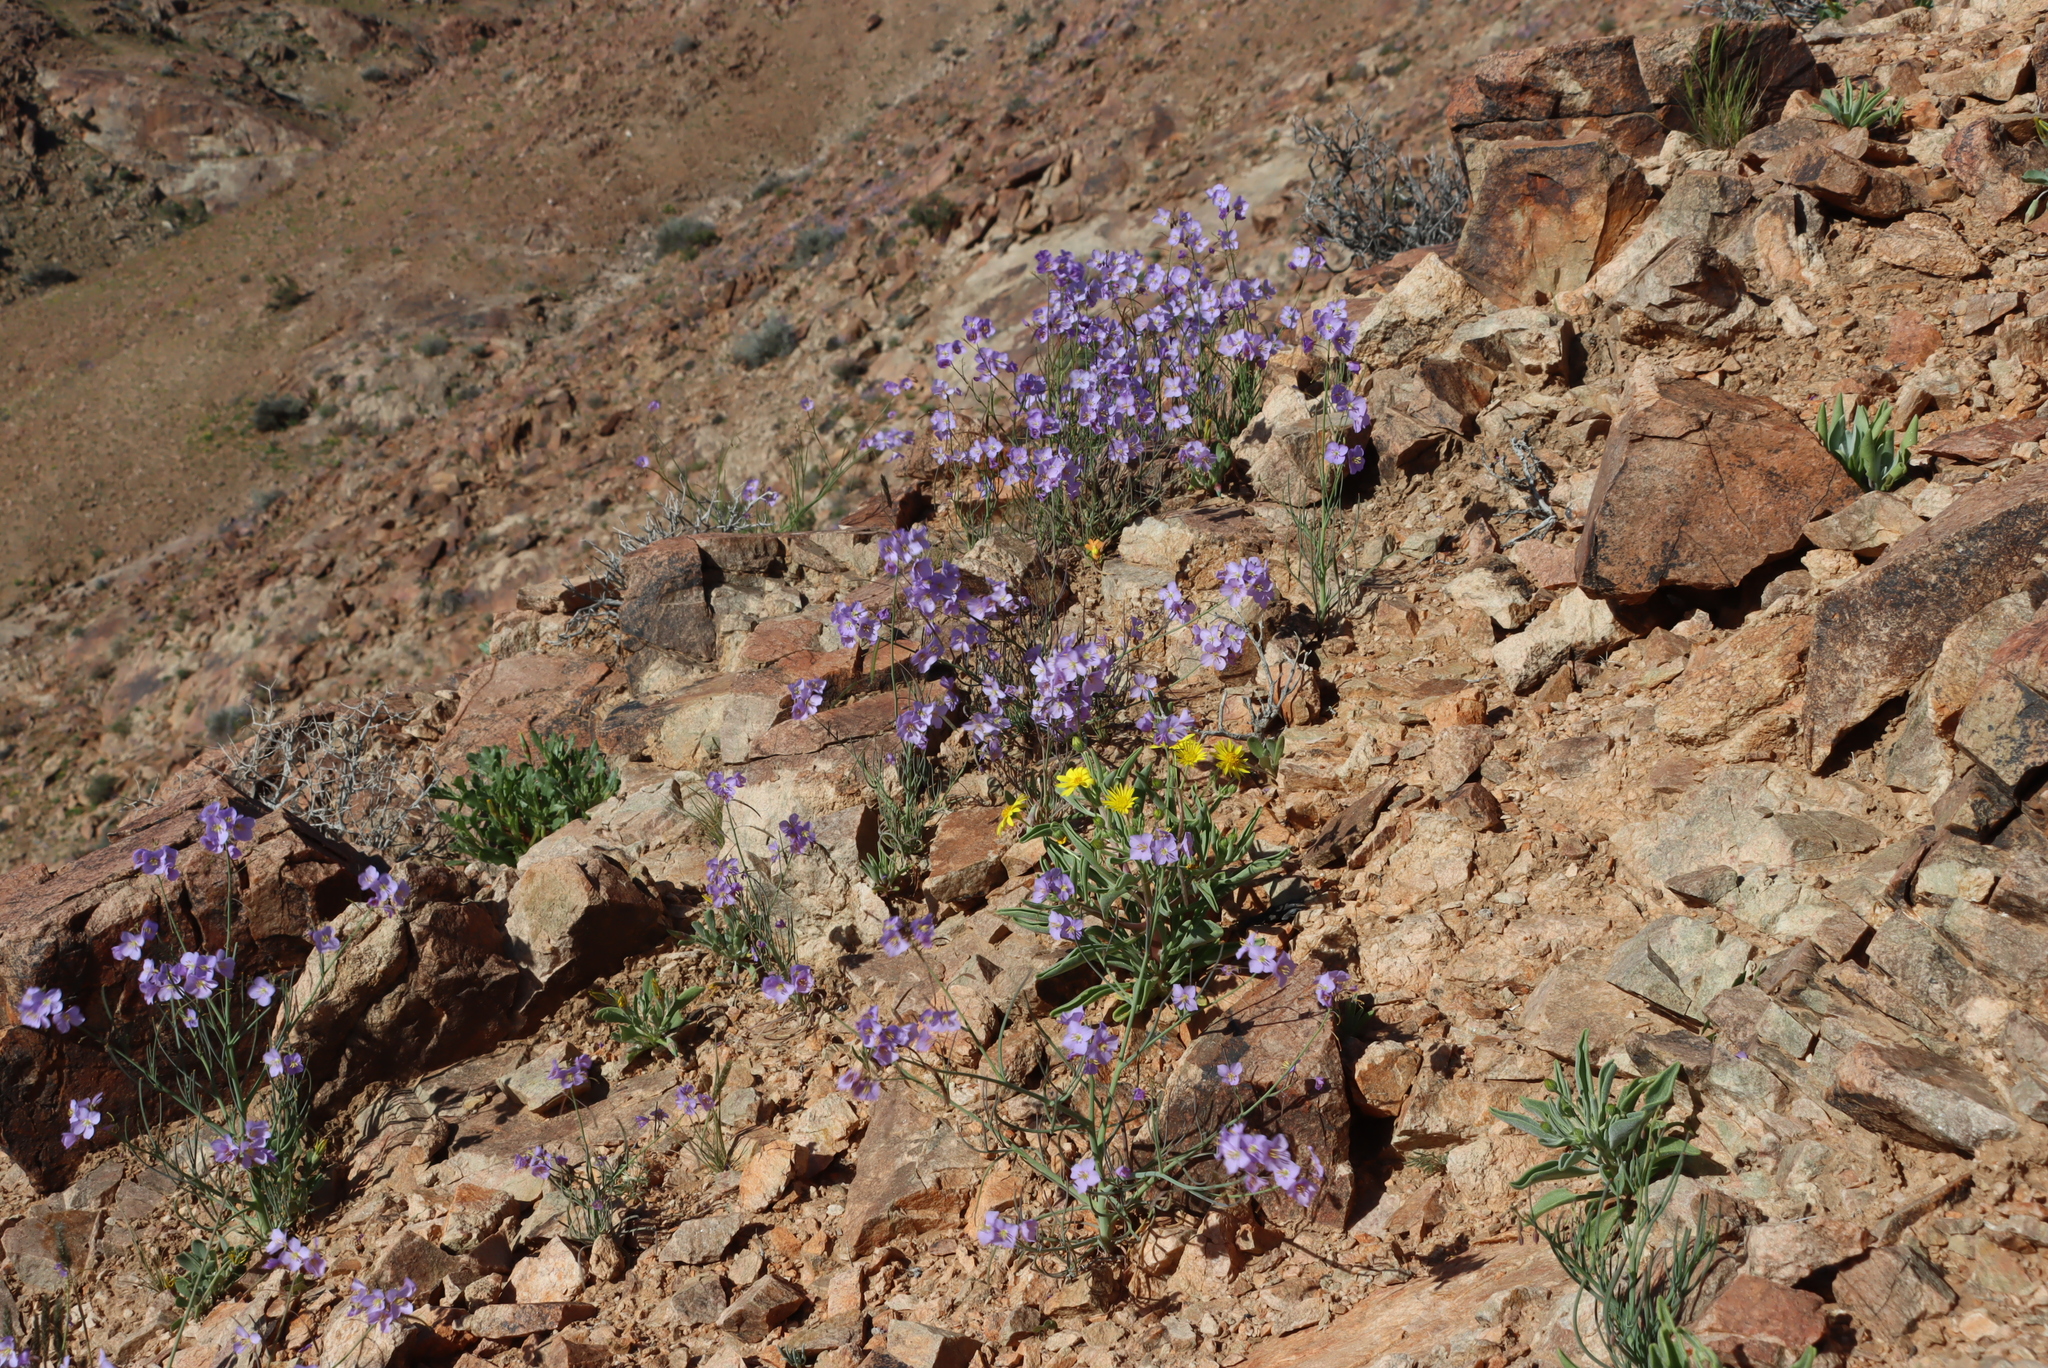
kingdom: Plantae
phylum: Tracheophyta
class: Magnoliopsida
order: Brassicales
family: Brassicaceae
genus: Heliophila
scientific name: Heliophila trifurca
